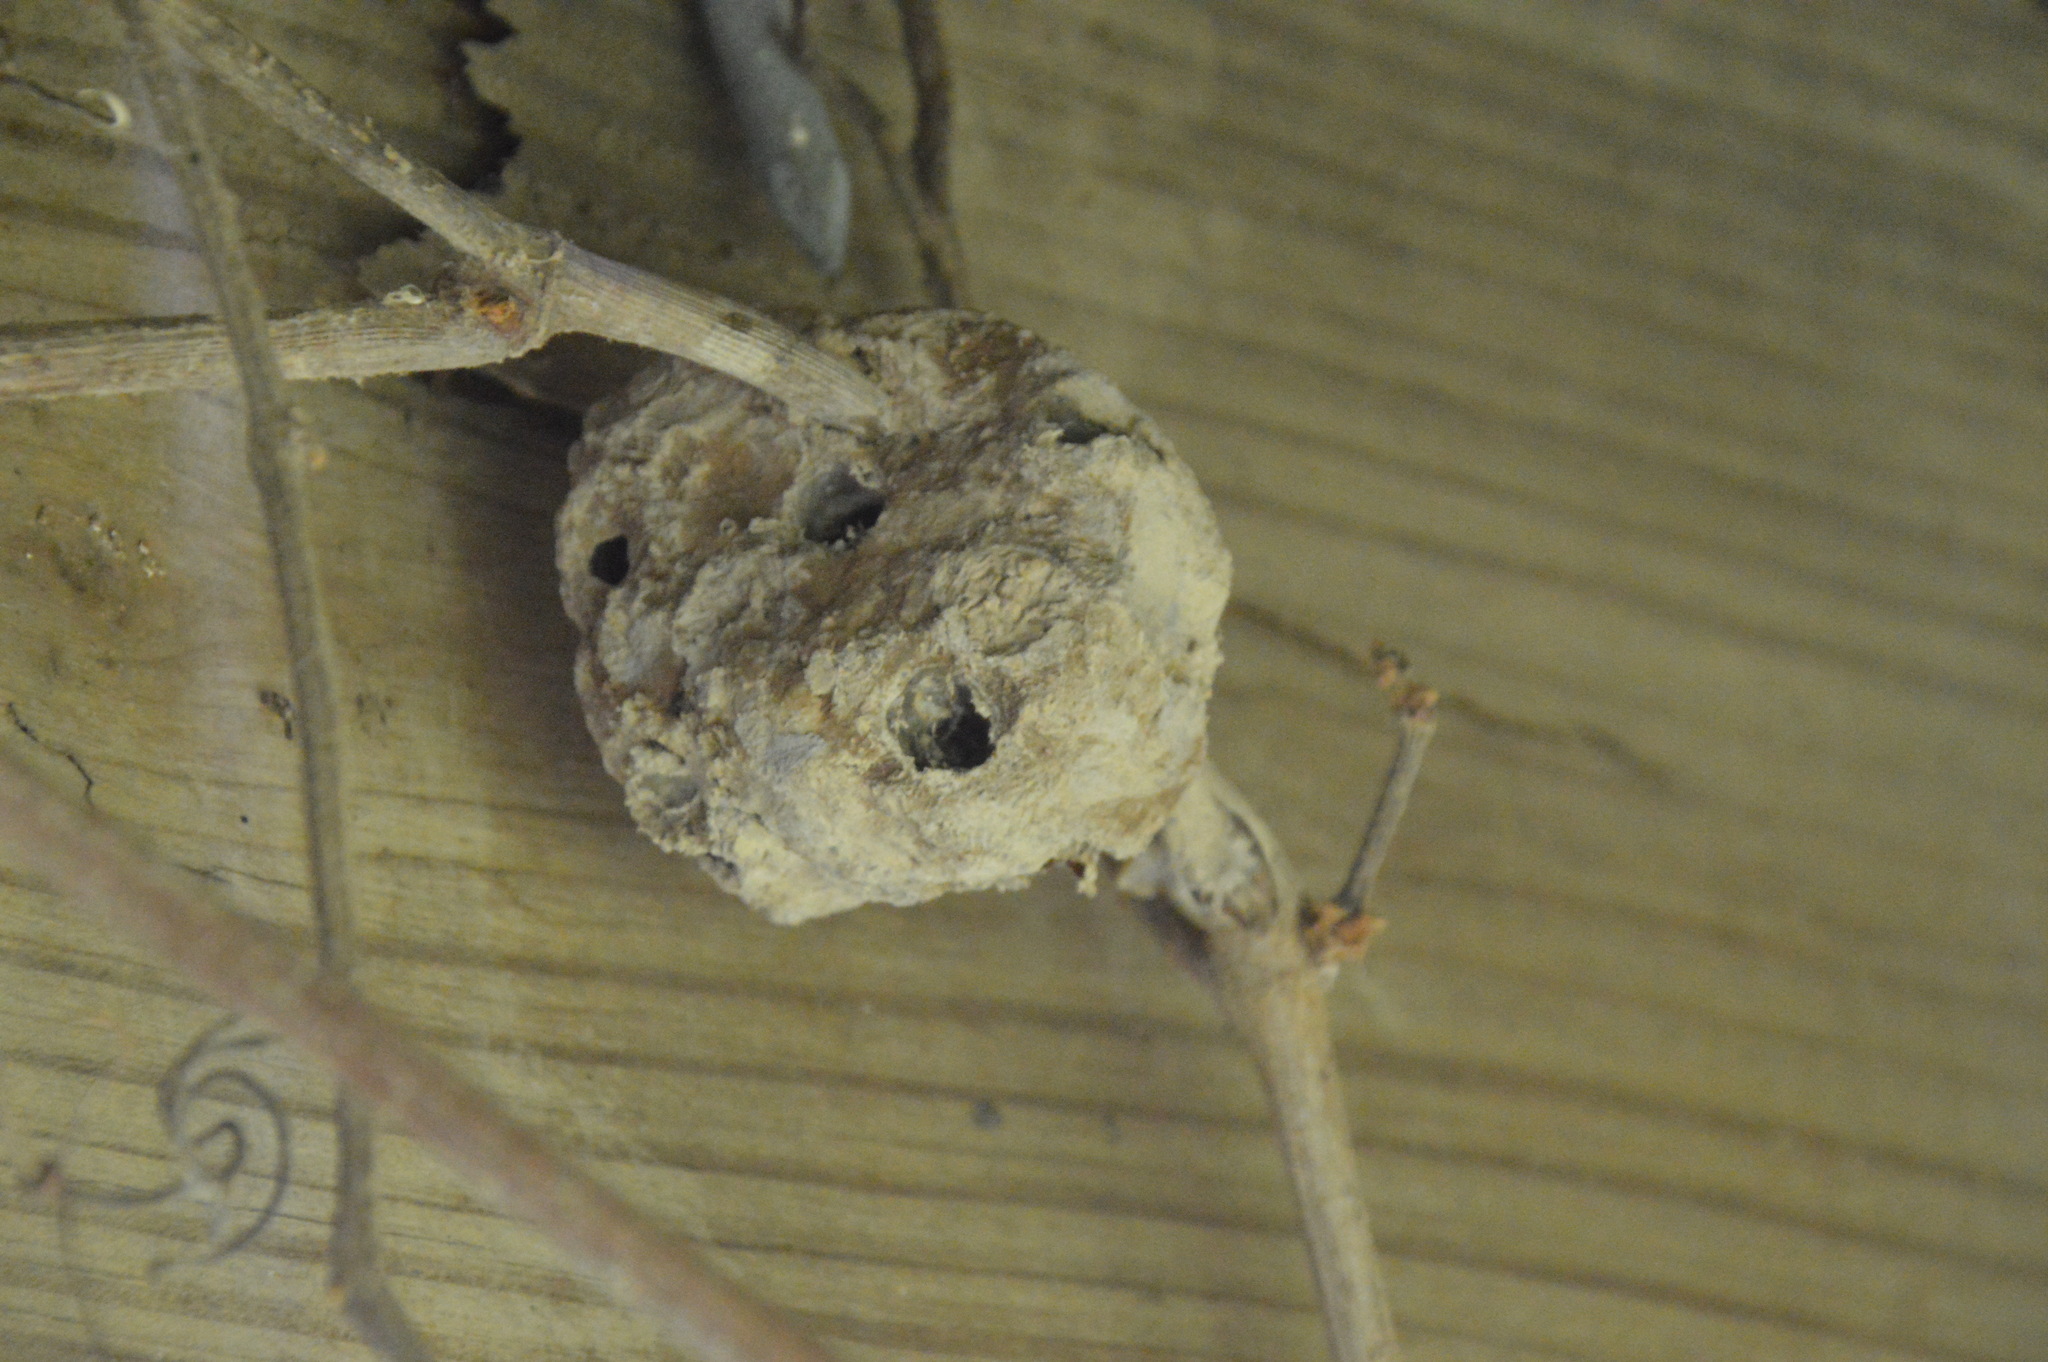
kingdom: Animalia
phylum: Arthropoda
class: Insecta
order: Hymenoptera
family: Masaridae
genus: Pseudomasaris
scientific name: Pseudomasaris
